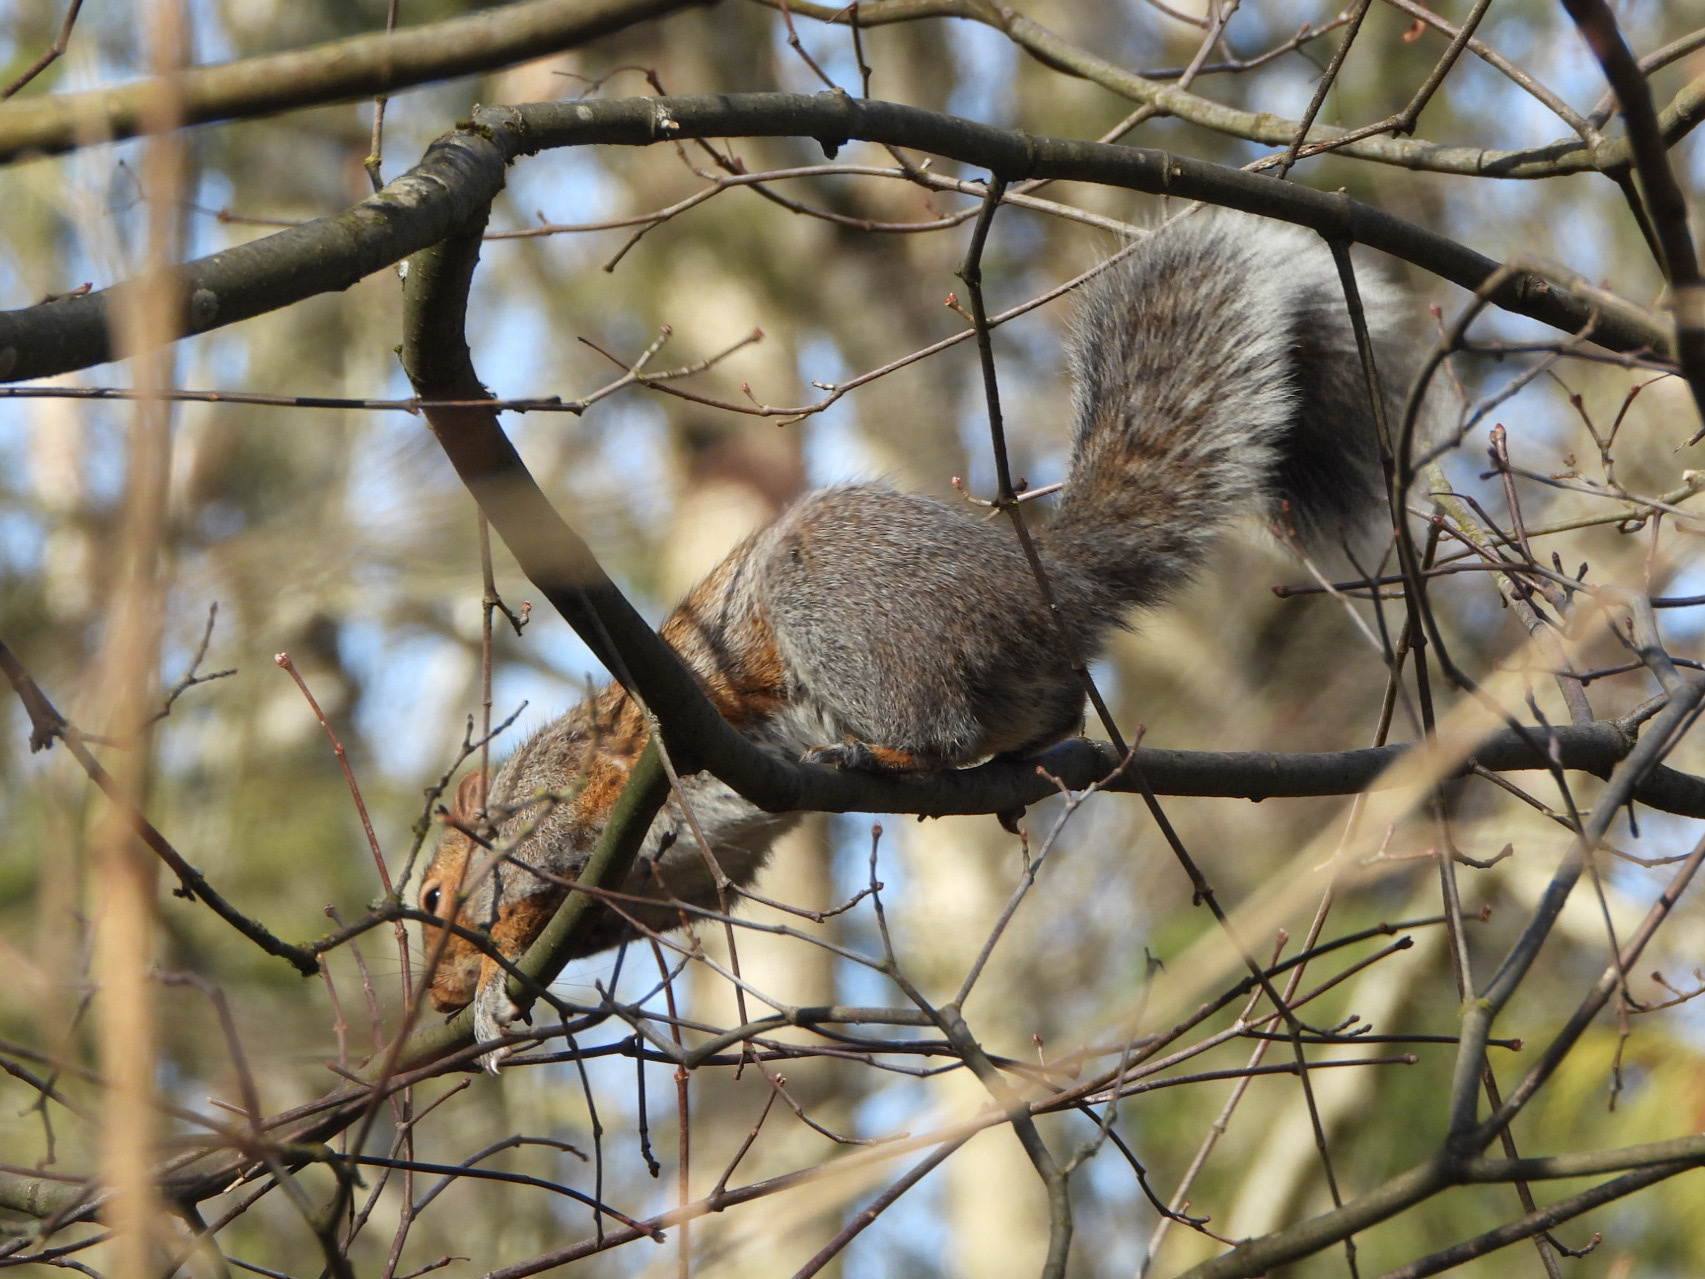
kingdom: Animalia
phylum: Chordata
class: Mammalia
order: Rodentia
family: Sciuridae
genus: Sciurus
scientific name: Sciurus carolinensis
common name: Eastern gray squirrel
